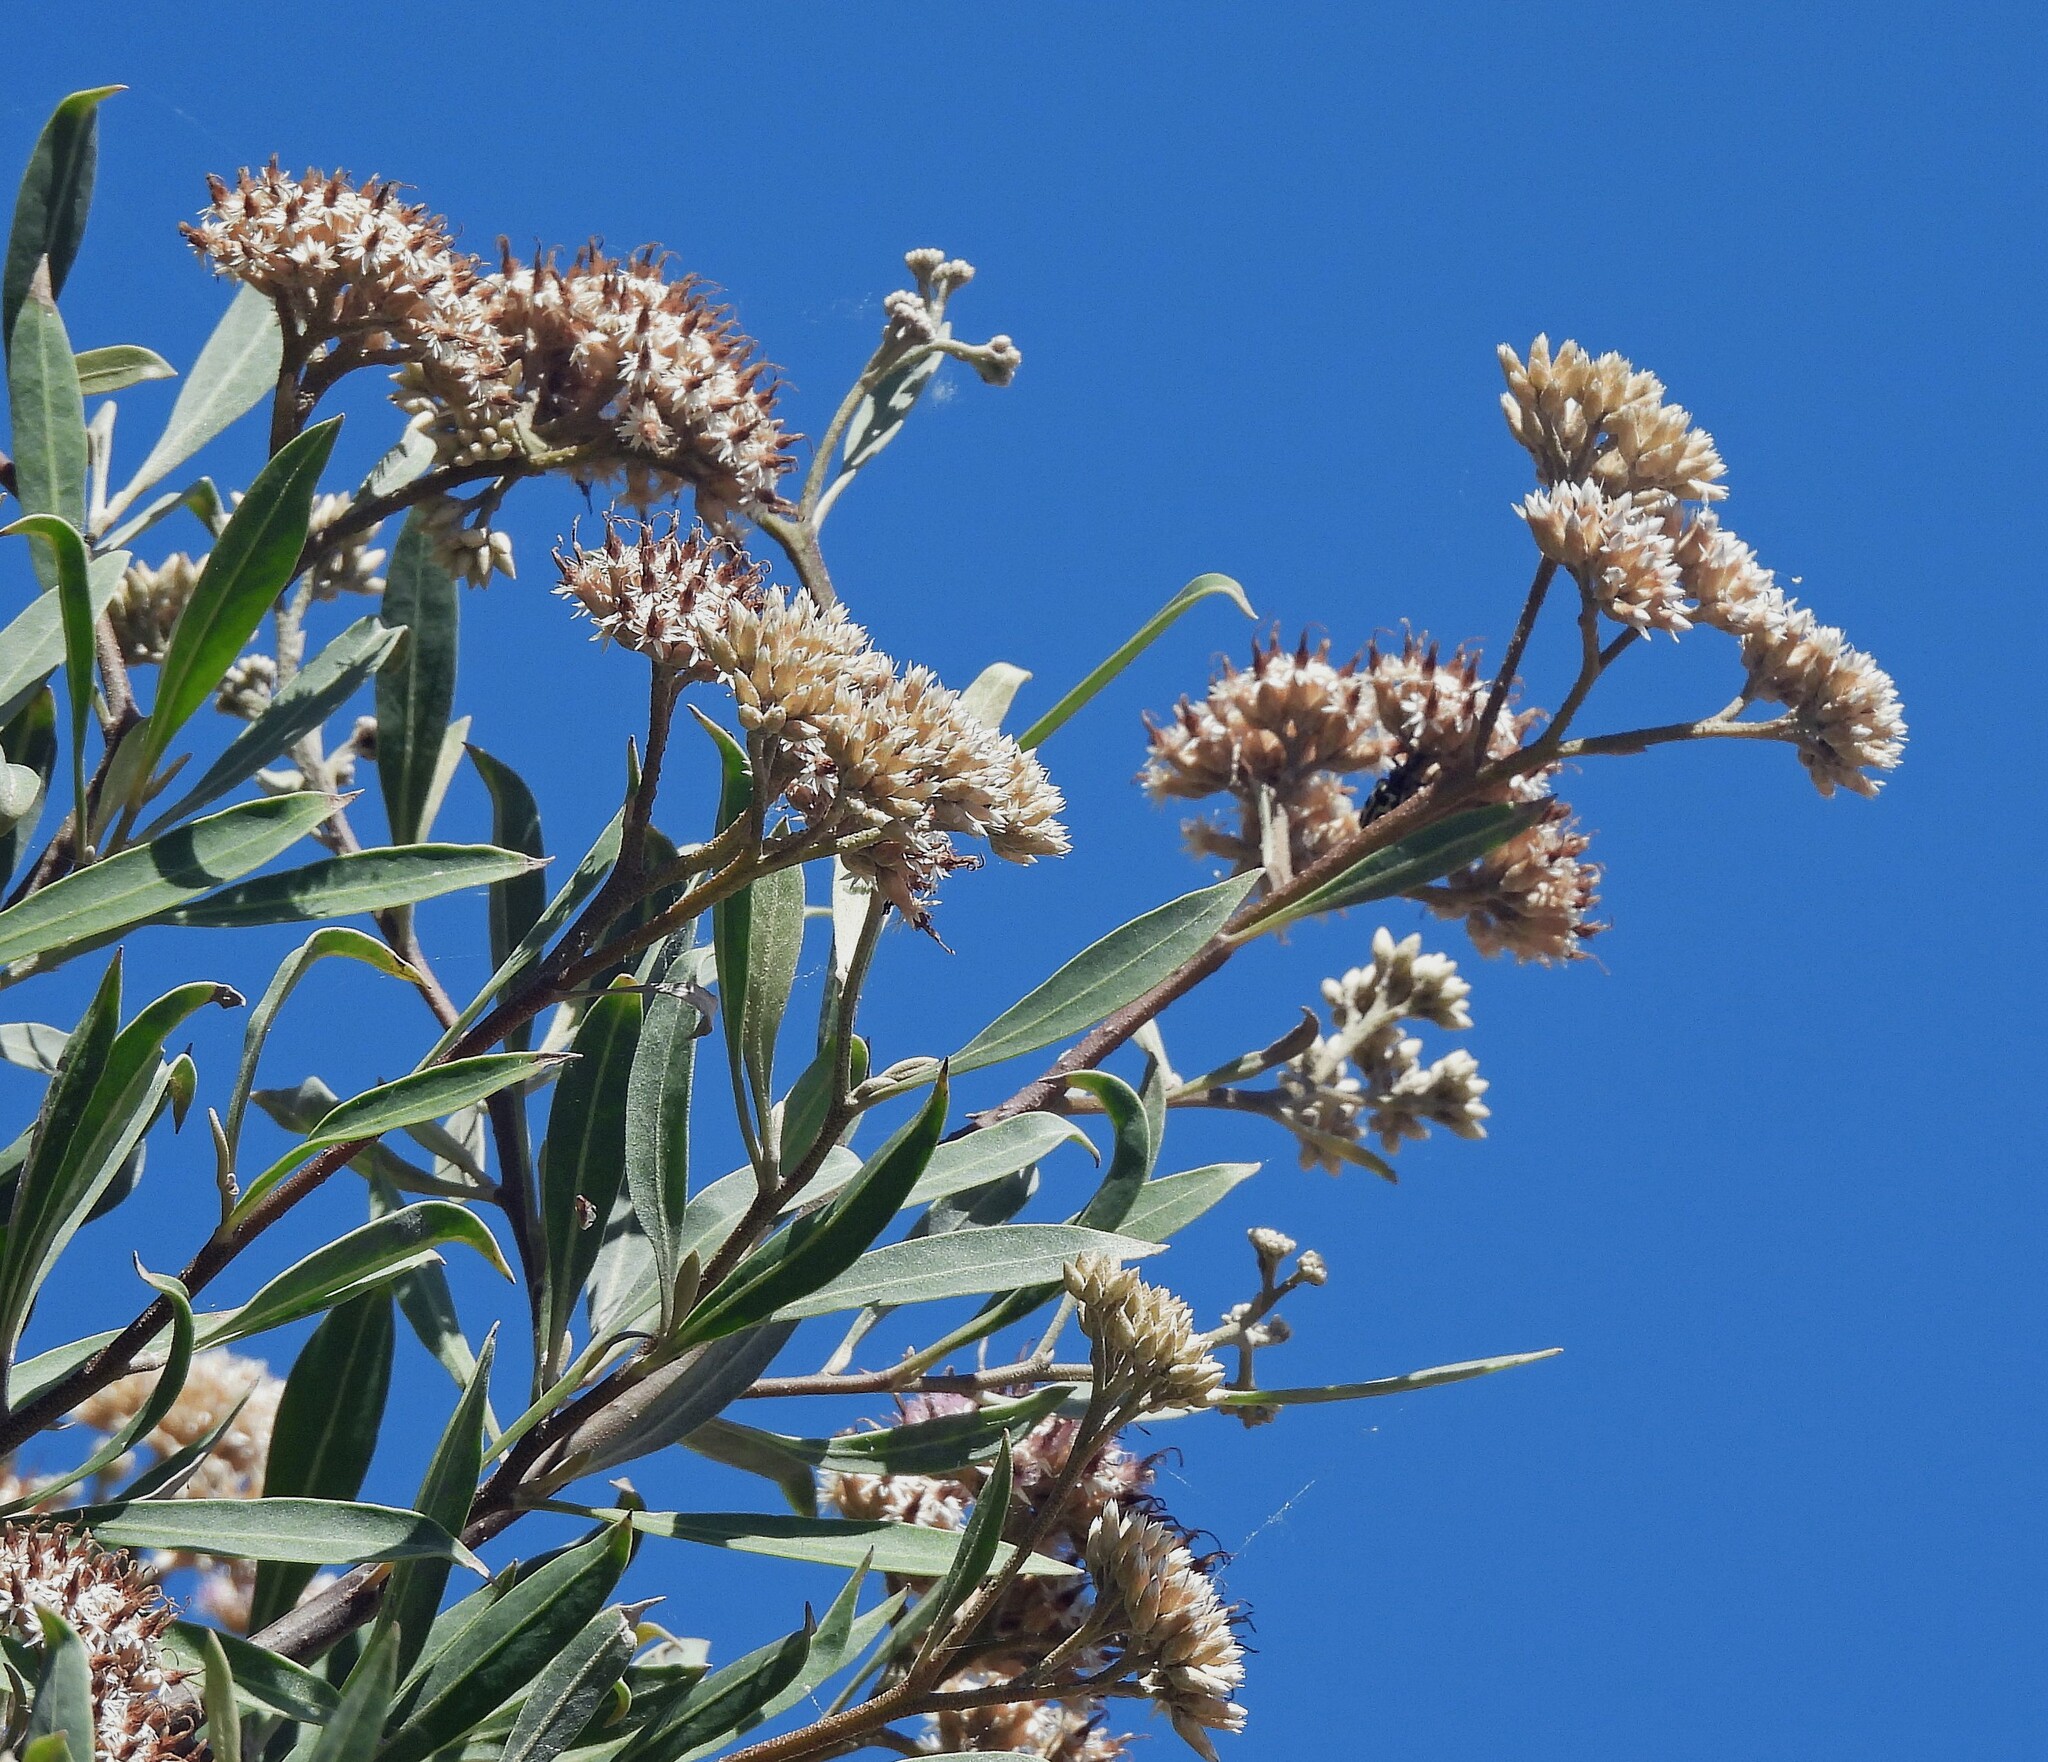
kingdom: Plantae
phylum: Tracheophyta
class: Magnoliopsida
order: Asterales
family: Asteraceae
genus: Tessaria
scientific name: Tessaria integrifolia
